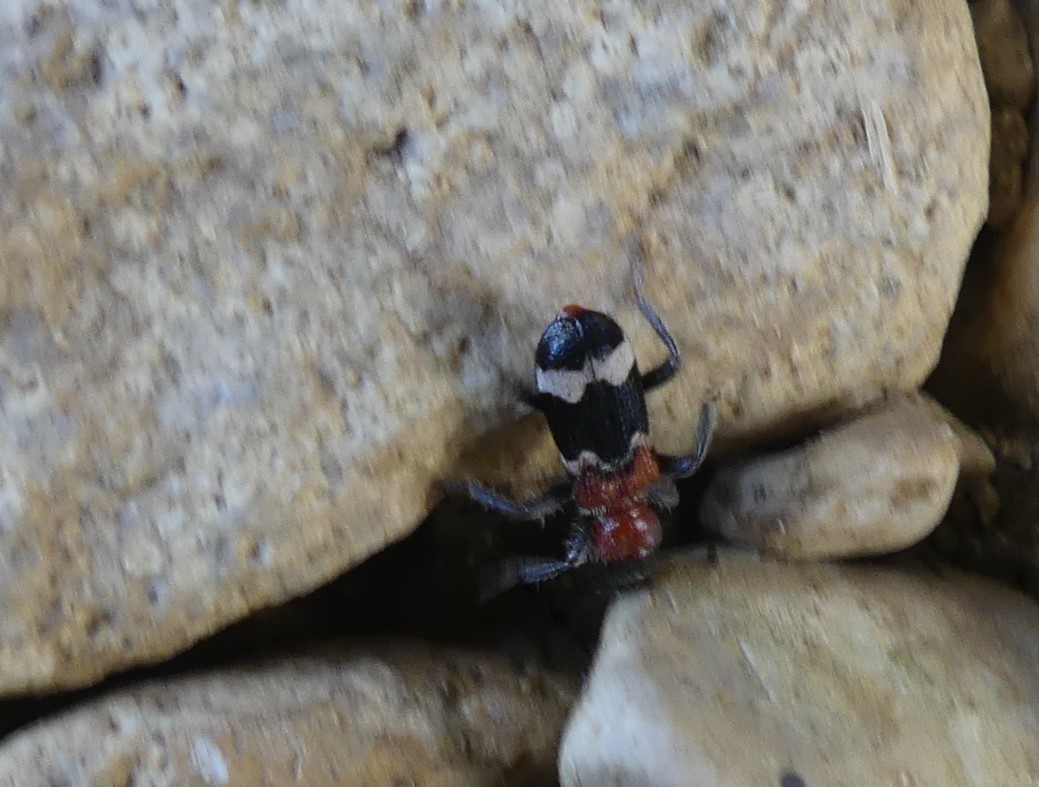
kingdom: Animalia
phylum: Arthropoda
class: Insecta
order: Coleoptera
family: Cleridae
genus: Thanasimus
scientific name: Thanasimus formicarius
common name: Ant beetle
